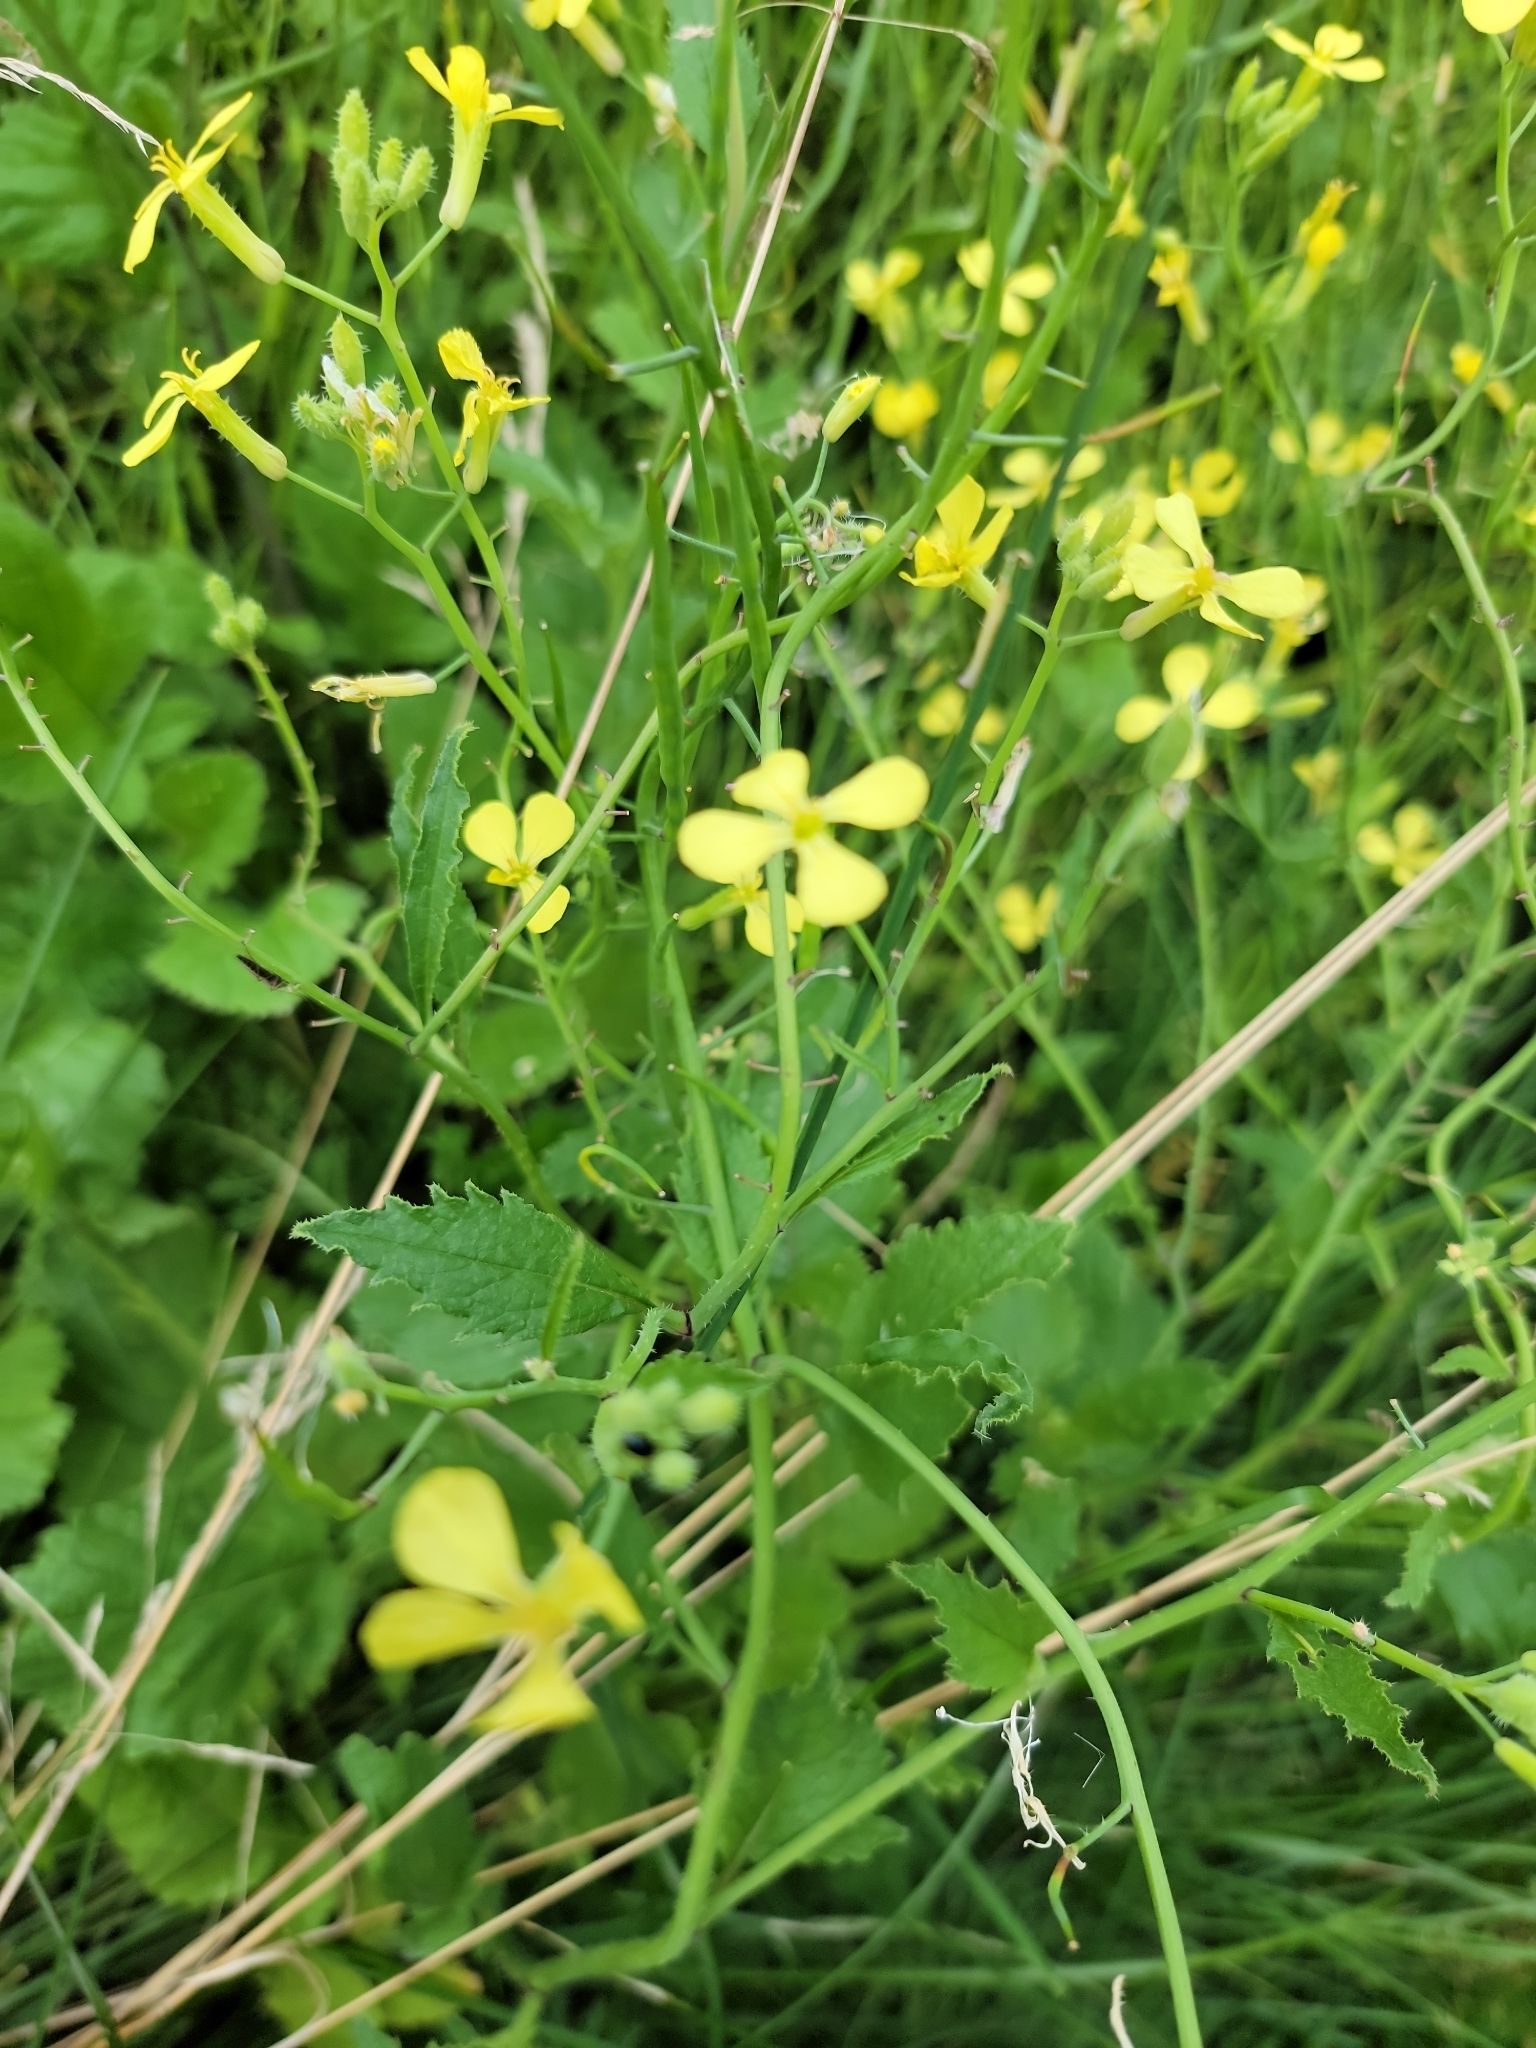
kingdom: Plantae
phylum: Tracheophyta
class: Magnoliopsida
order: Brassicales
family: Brassicaceae
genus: Raphanus
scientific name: Raphanus raphanistrum
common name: Wild radish
